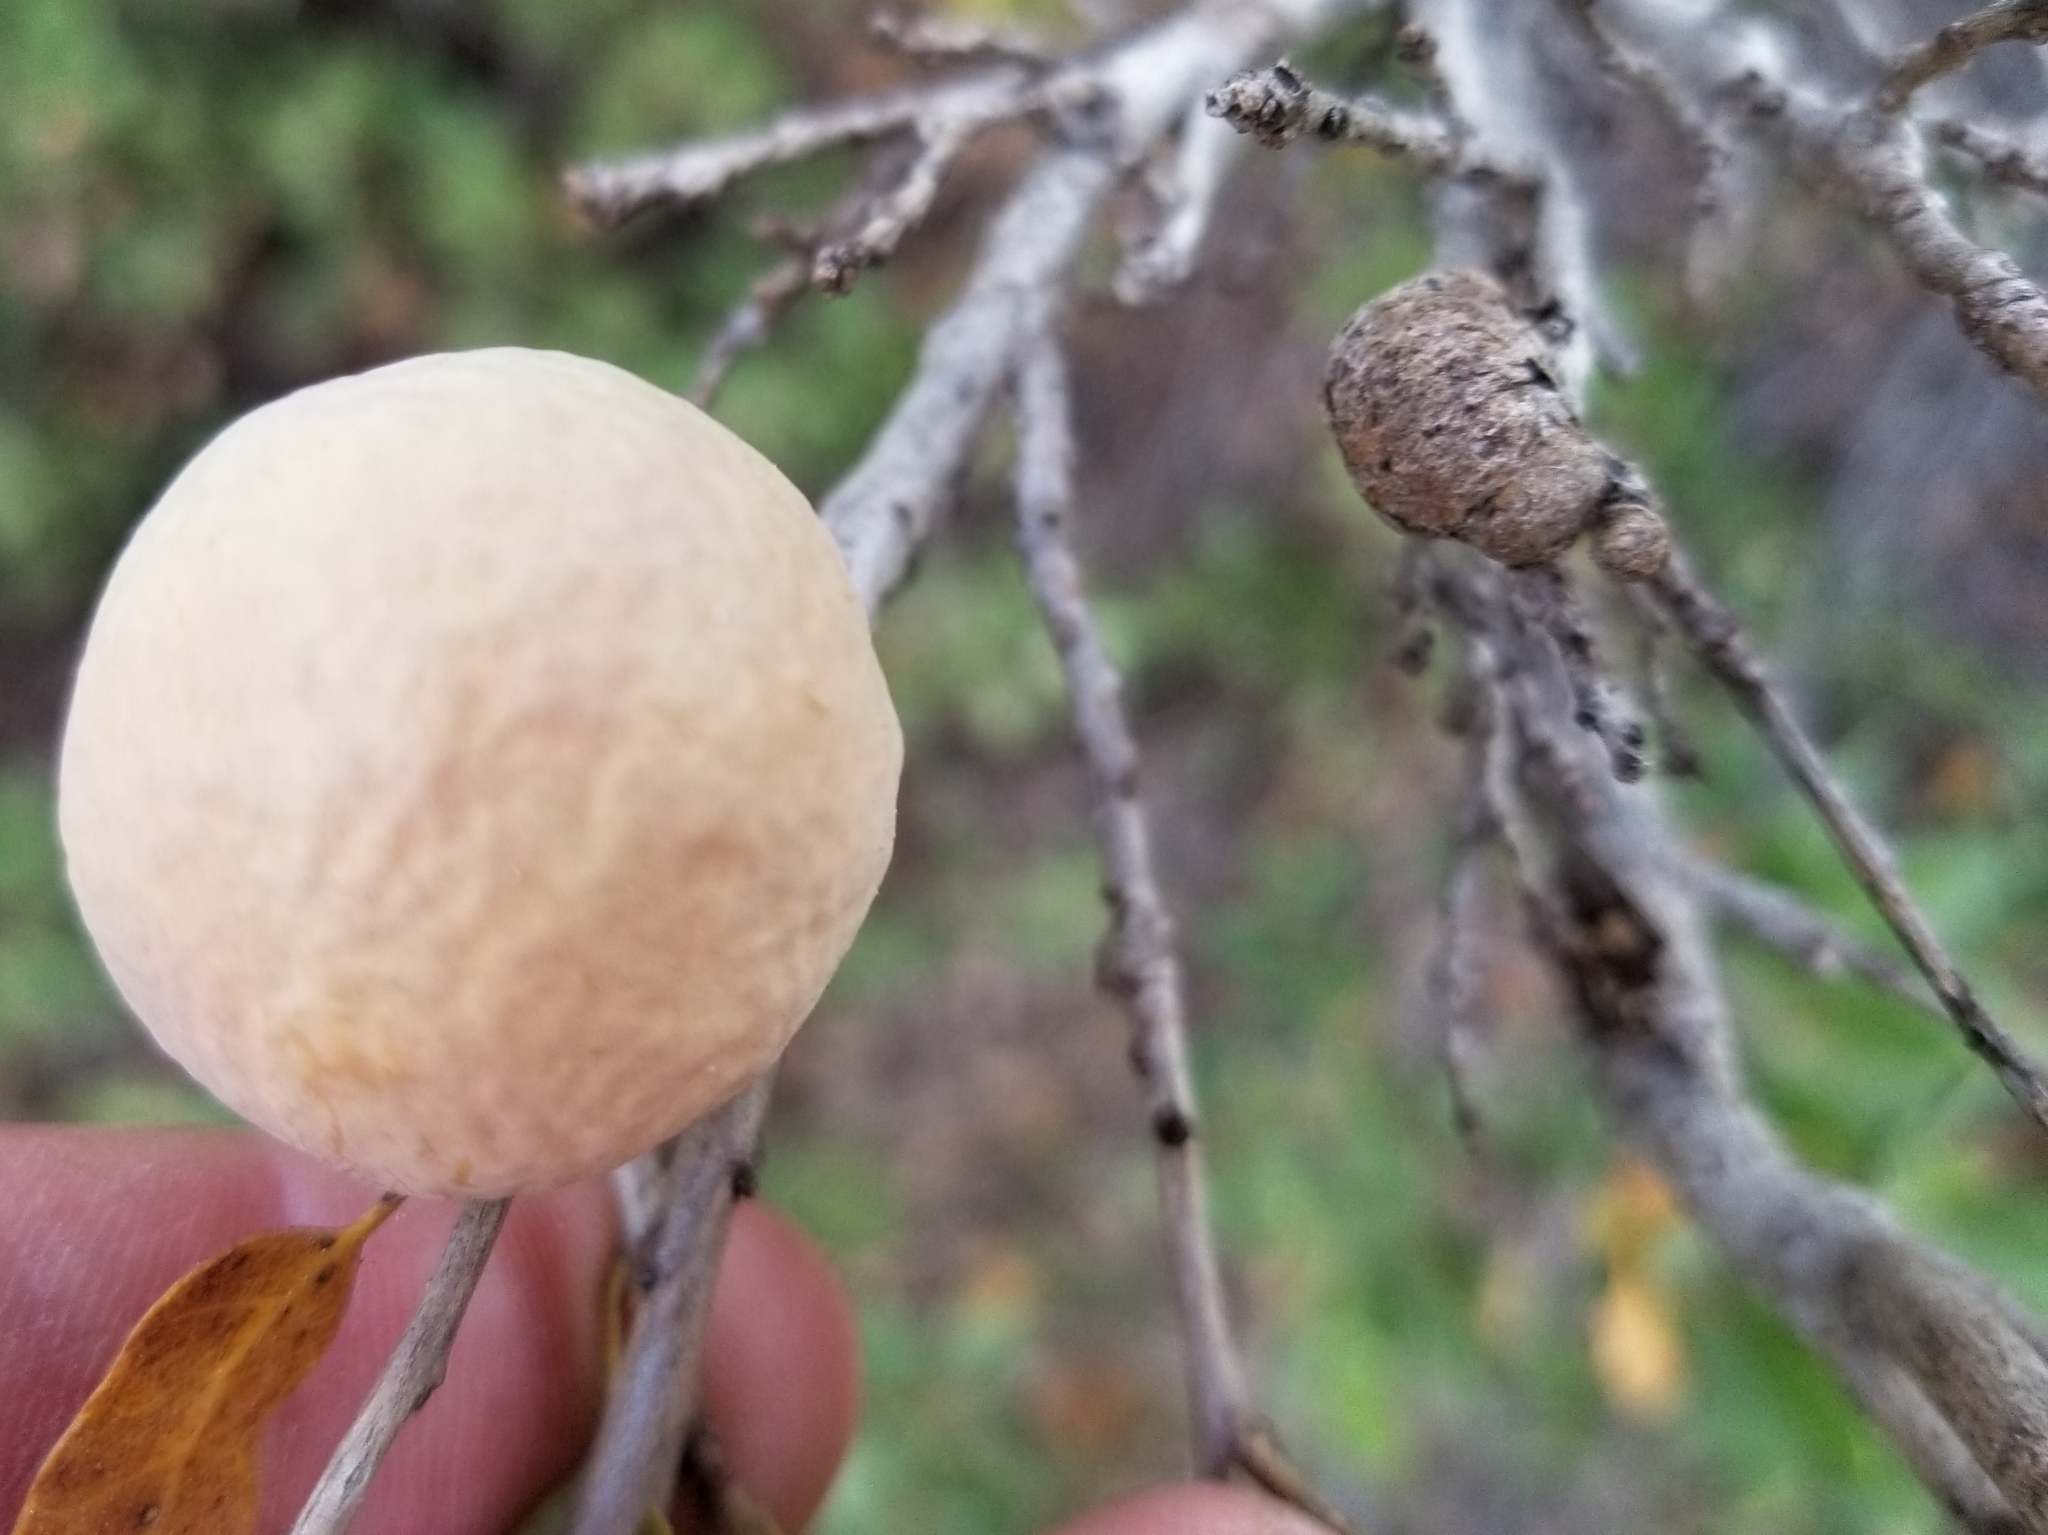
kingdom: Animalia
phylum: Arthropoda
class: Insecta
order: Hymenoptera
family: Cynipidae
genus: Andricus
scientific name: Andricus
